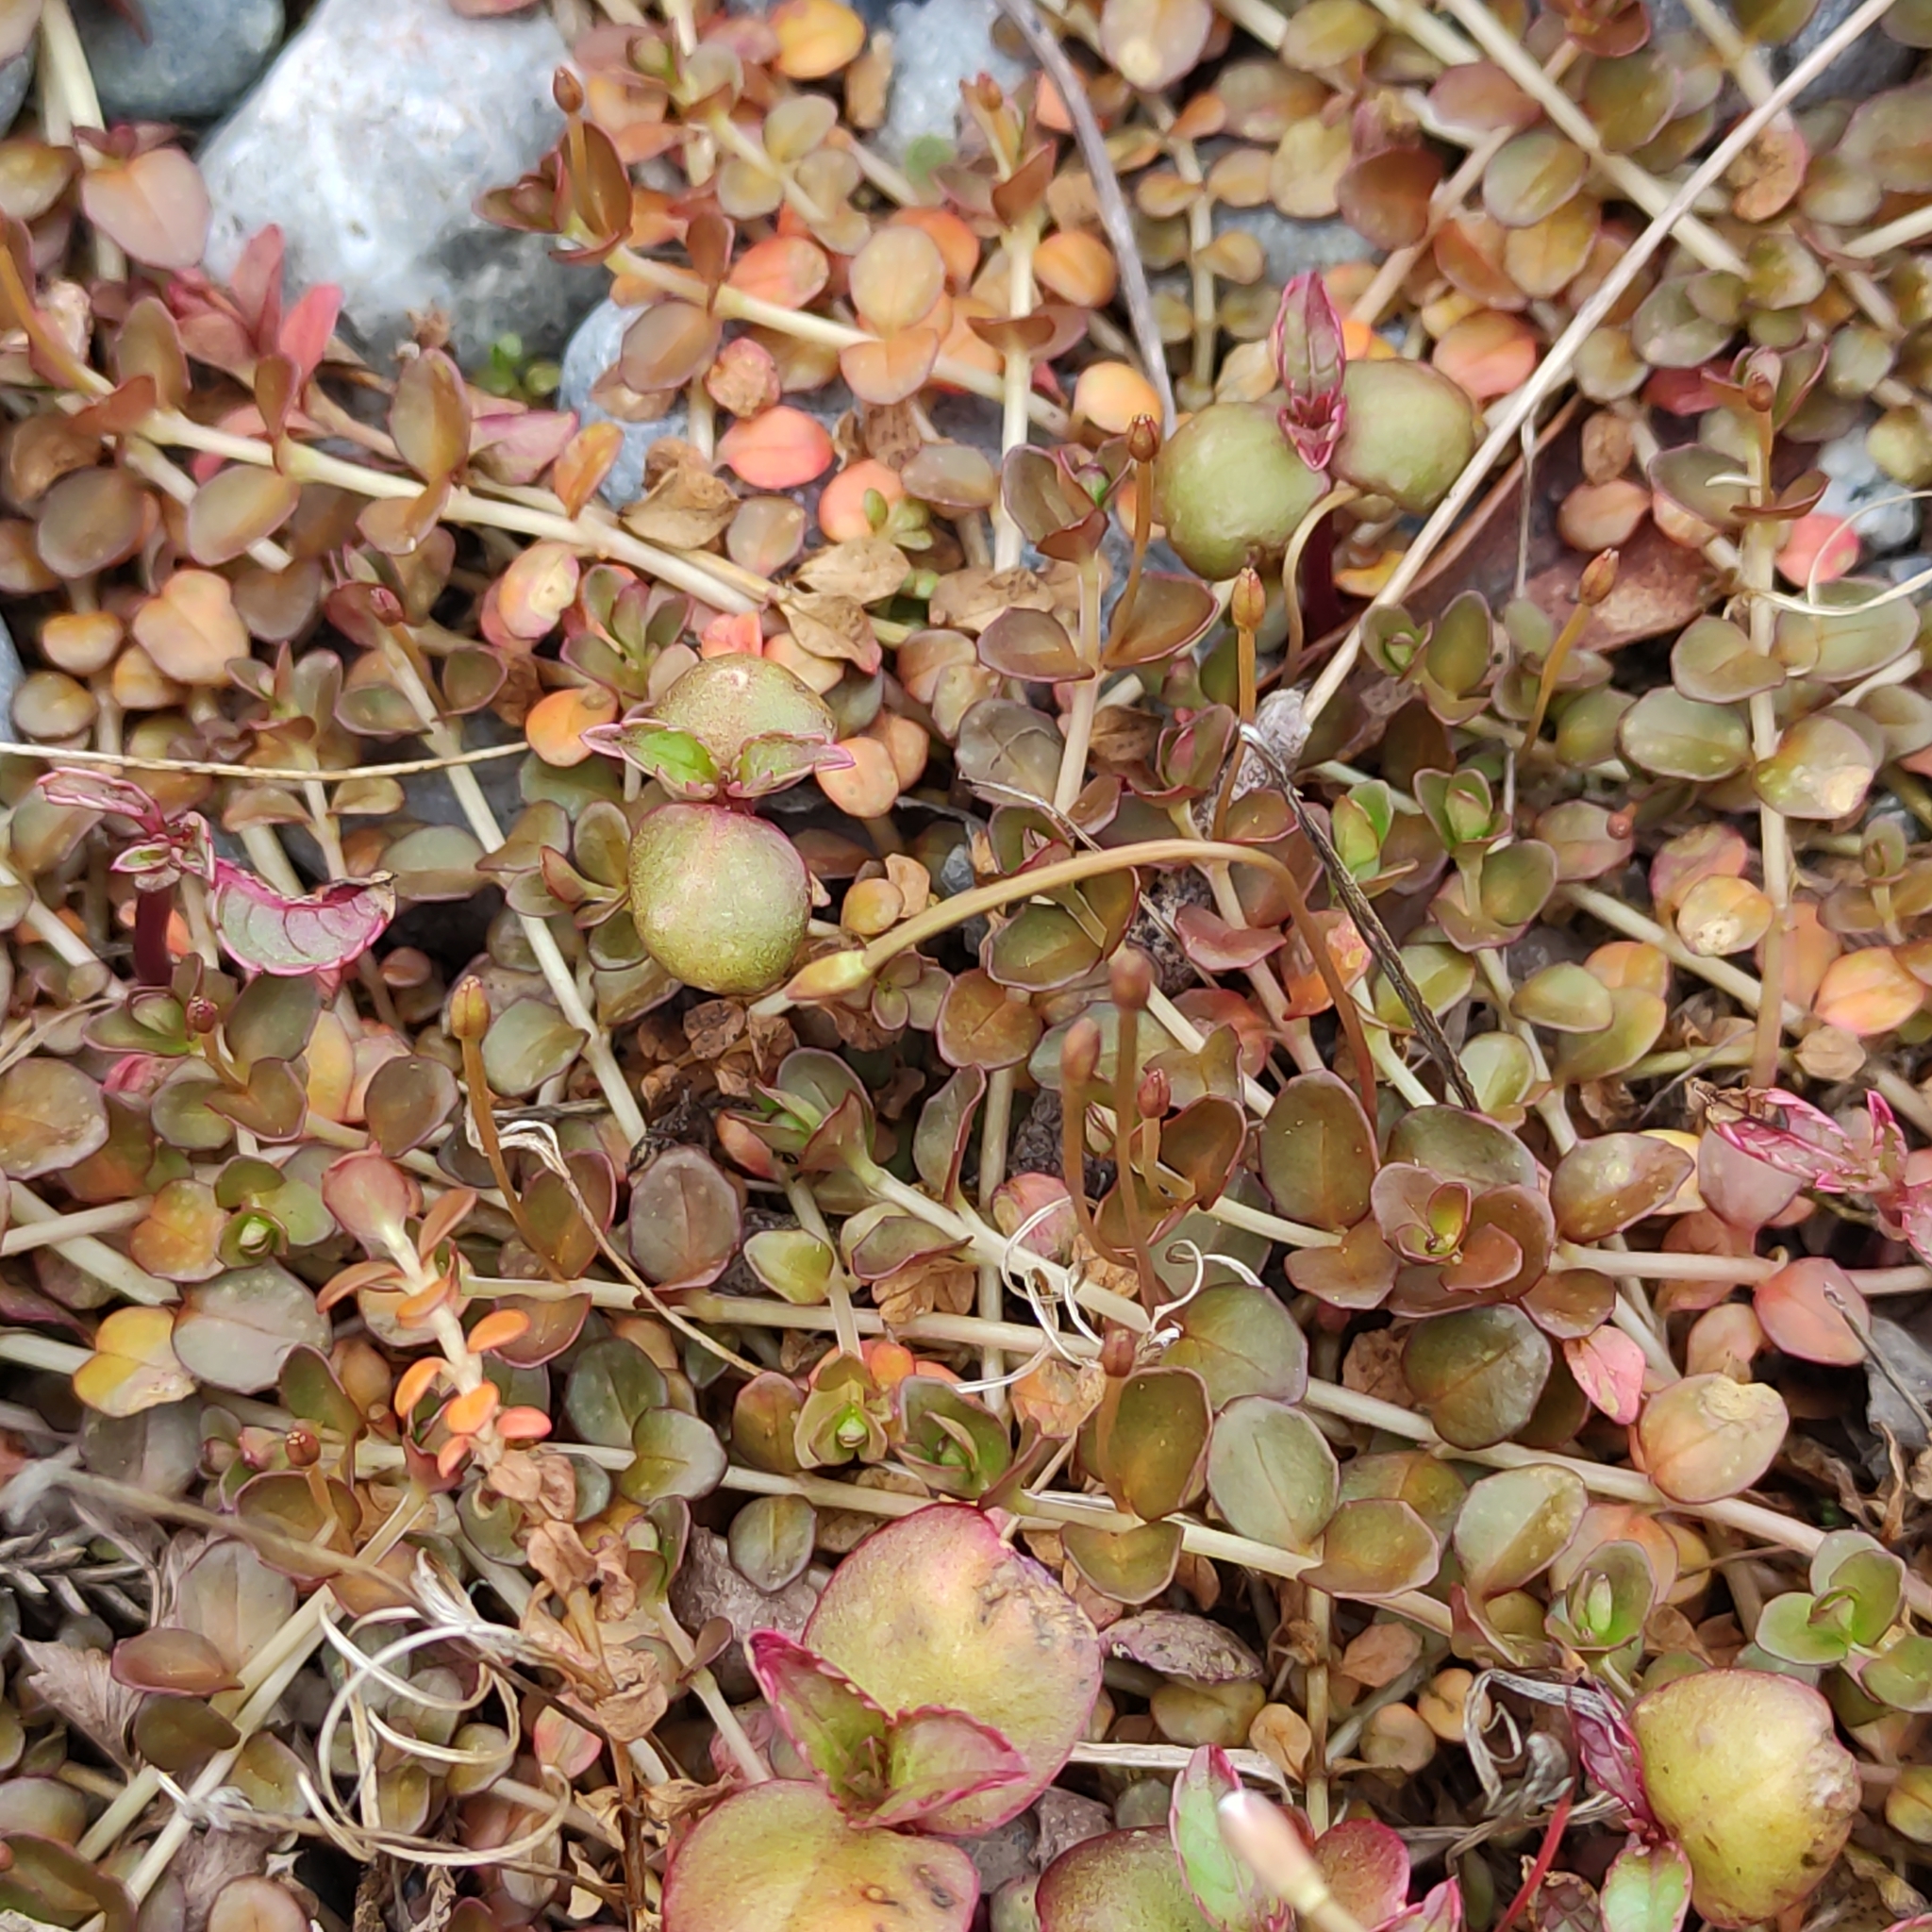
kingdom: Plantae
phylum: Tracheophyta
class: Magnoliopsida
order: Myrtales
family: Onagraceae
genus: Epilobium
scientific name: Epilobium brunnescens
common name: New zealand willowherb
